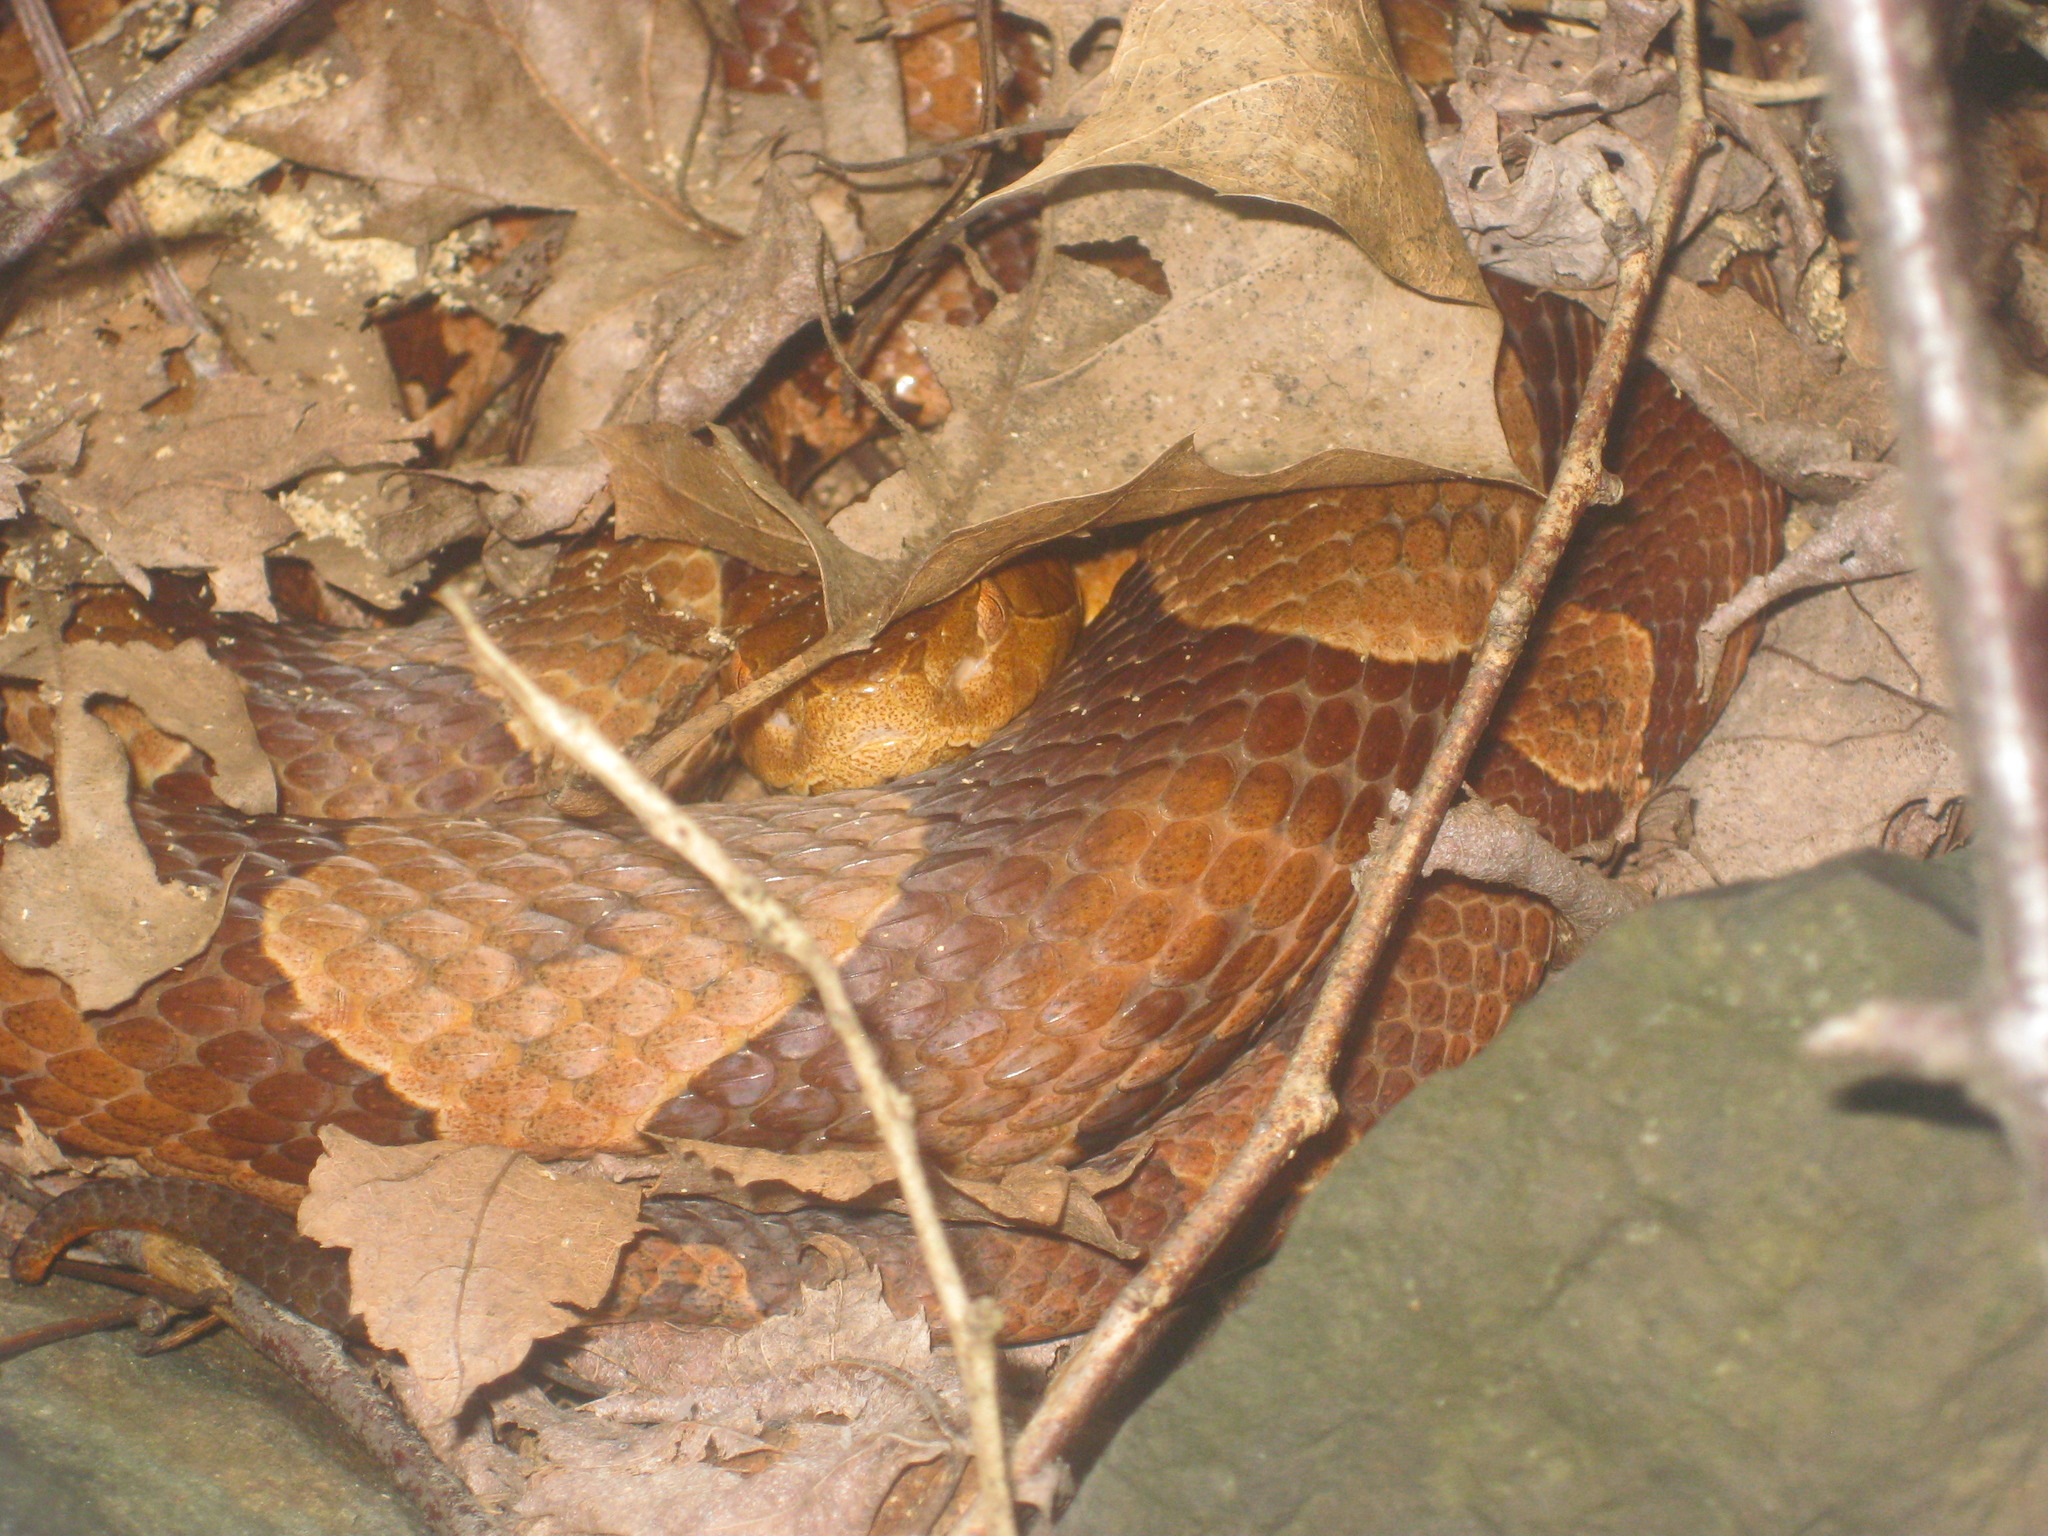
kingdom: Animalia
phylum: Chordata
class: Squamata
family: Viperidae
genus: Agkistrodon
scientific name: Agkistrodon contortrix
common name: Northern copperhead
